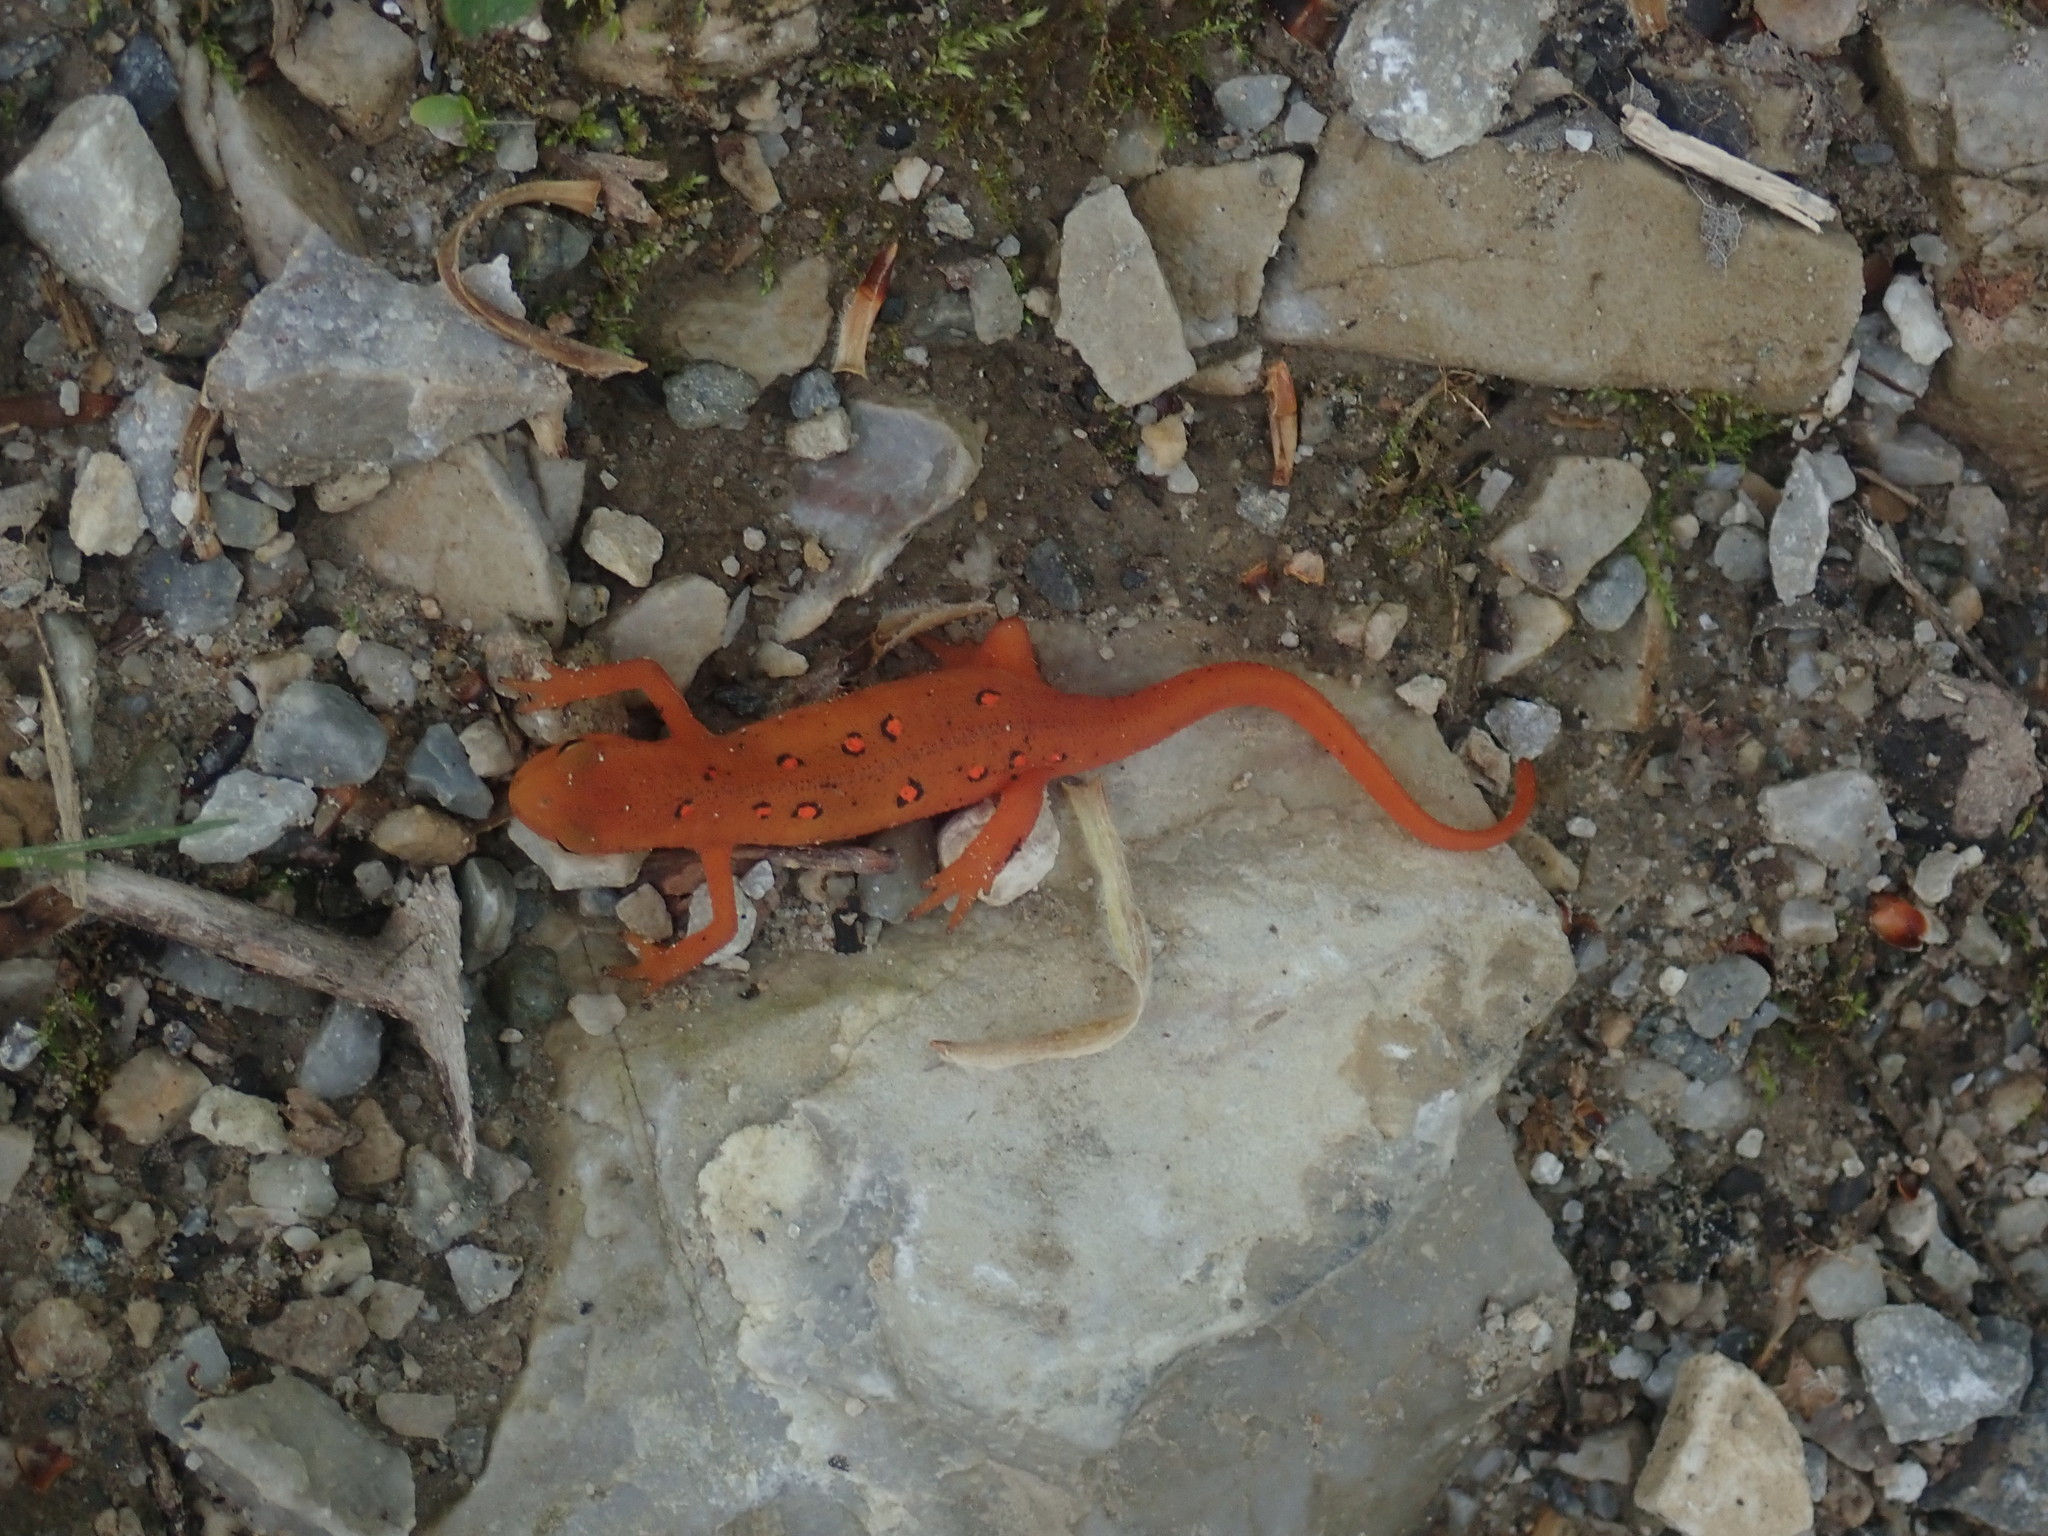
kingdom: Animalia
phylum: Chordata
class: Amphibia
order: Caudata
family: Salamandridae
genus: Notophthalmus
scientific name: Notophthalmus viridescens
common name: Eastern newt
